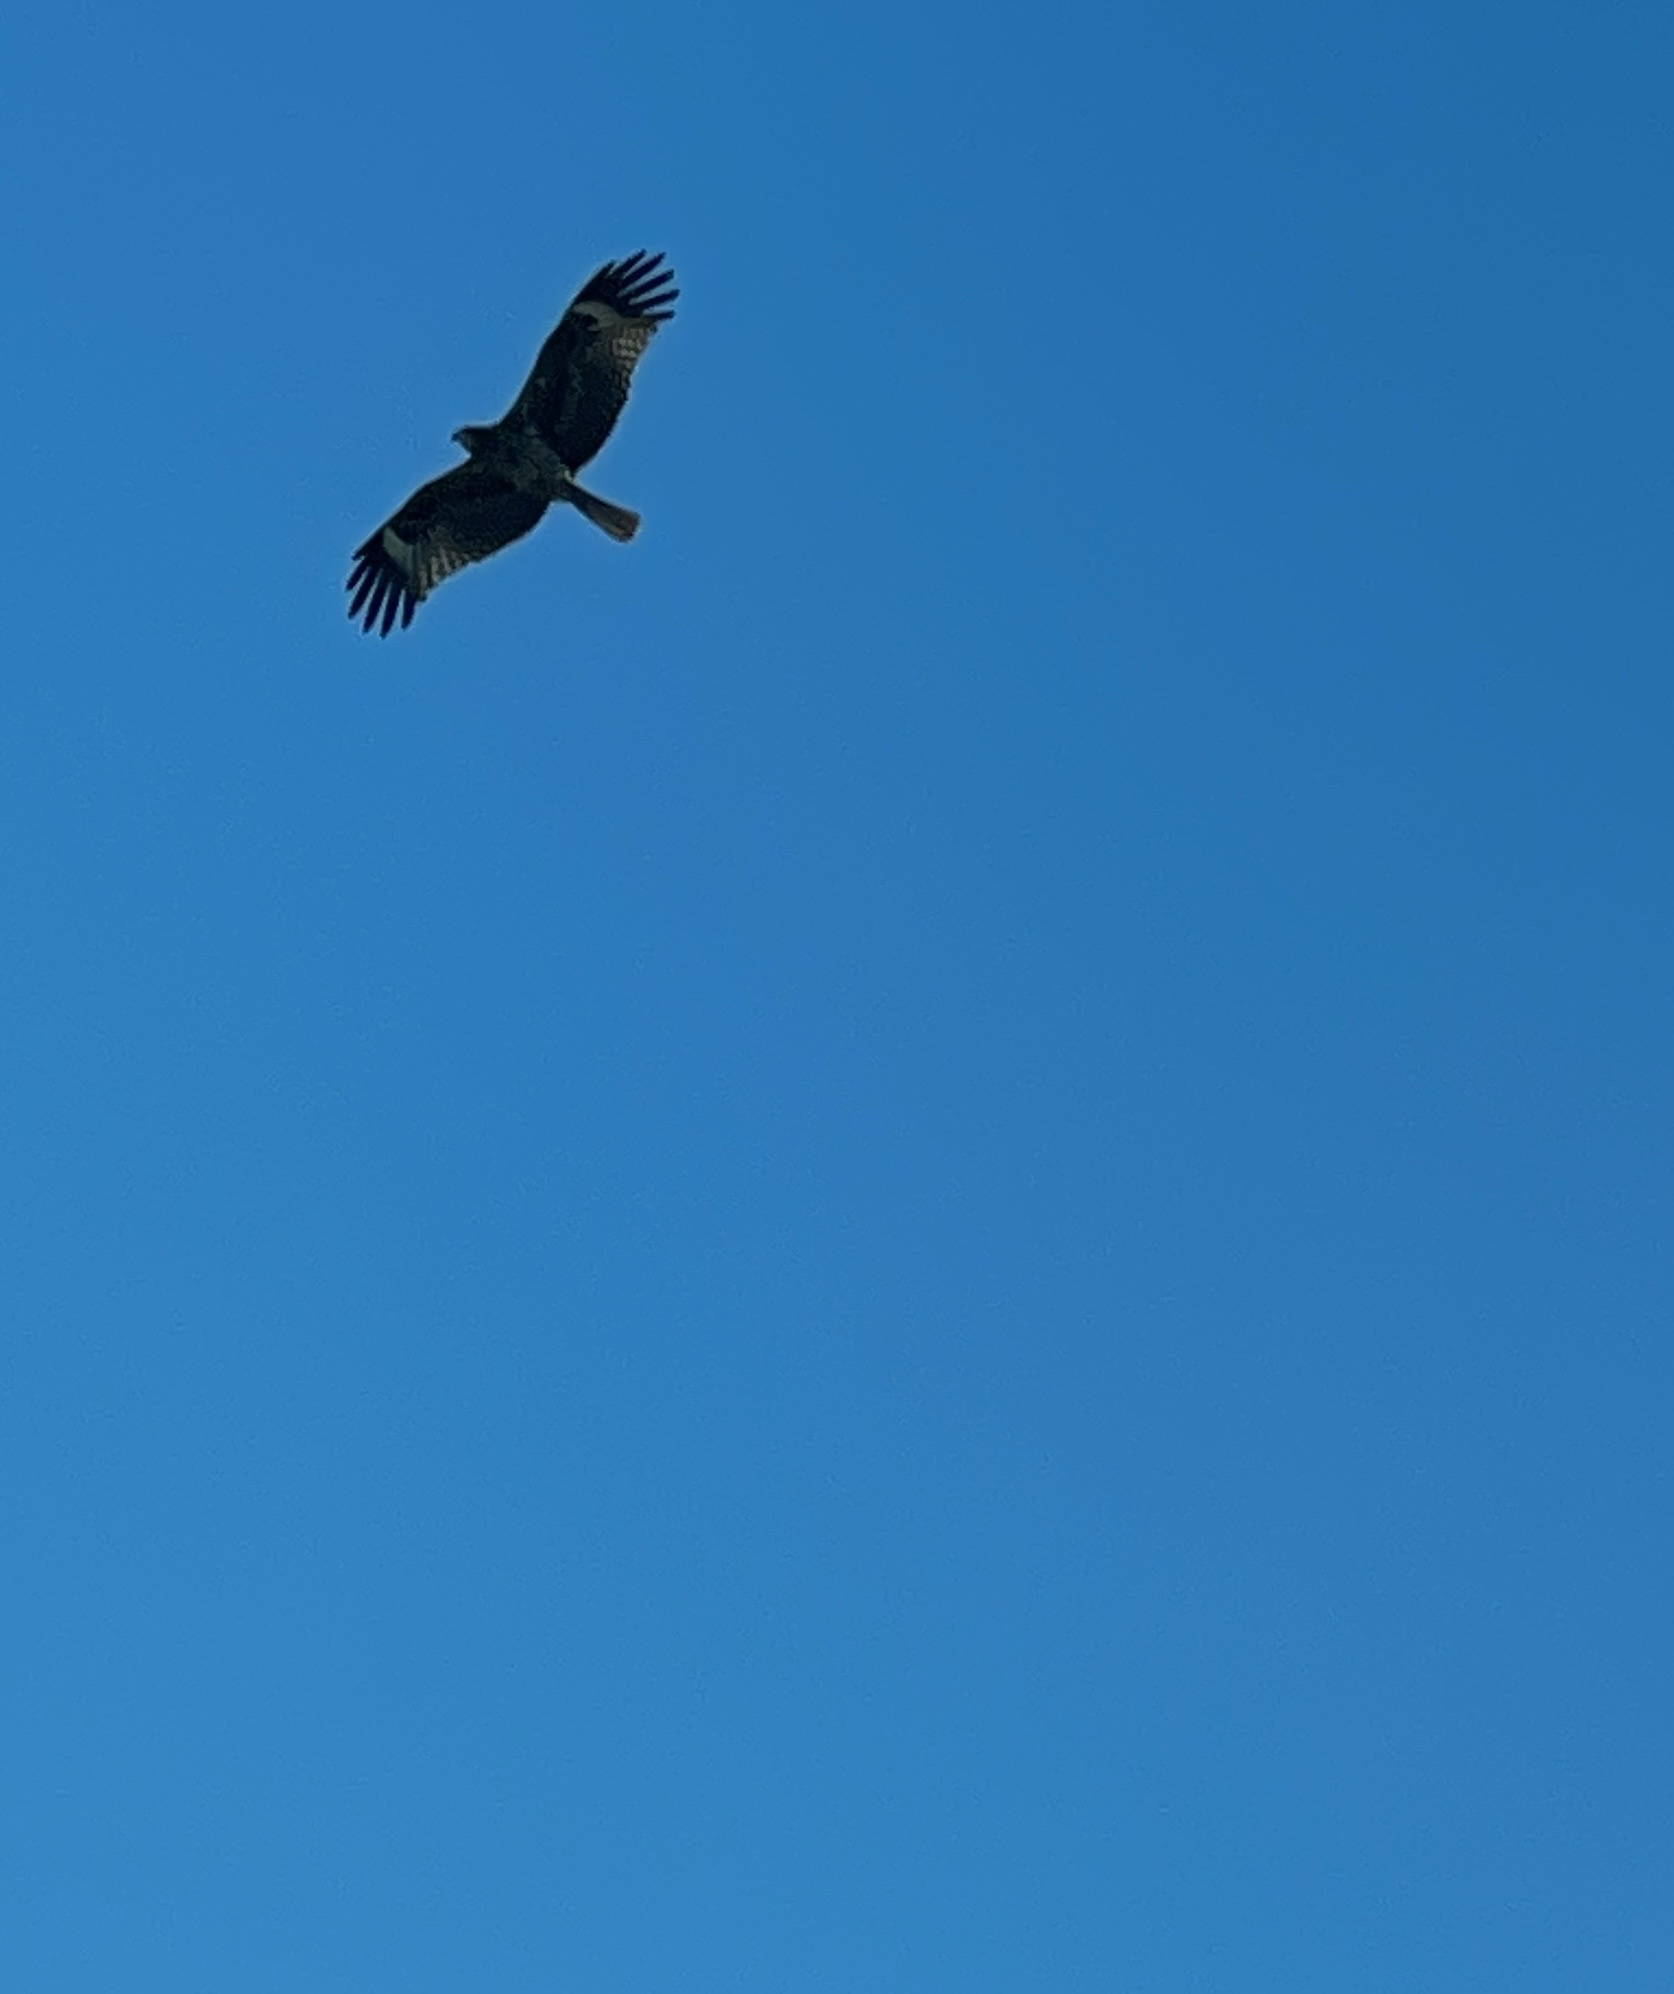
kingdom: Animalia
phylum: Chordata
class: Aves
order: Accipitriformes
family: Accipitridae
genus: Milvus
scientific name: Milvus migrans
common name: Black kite
